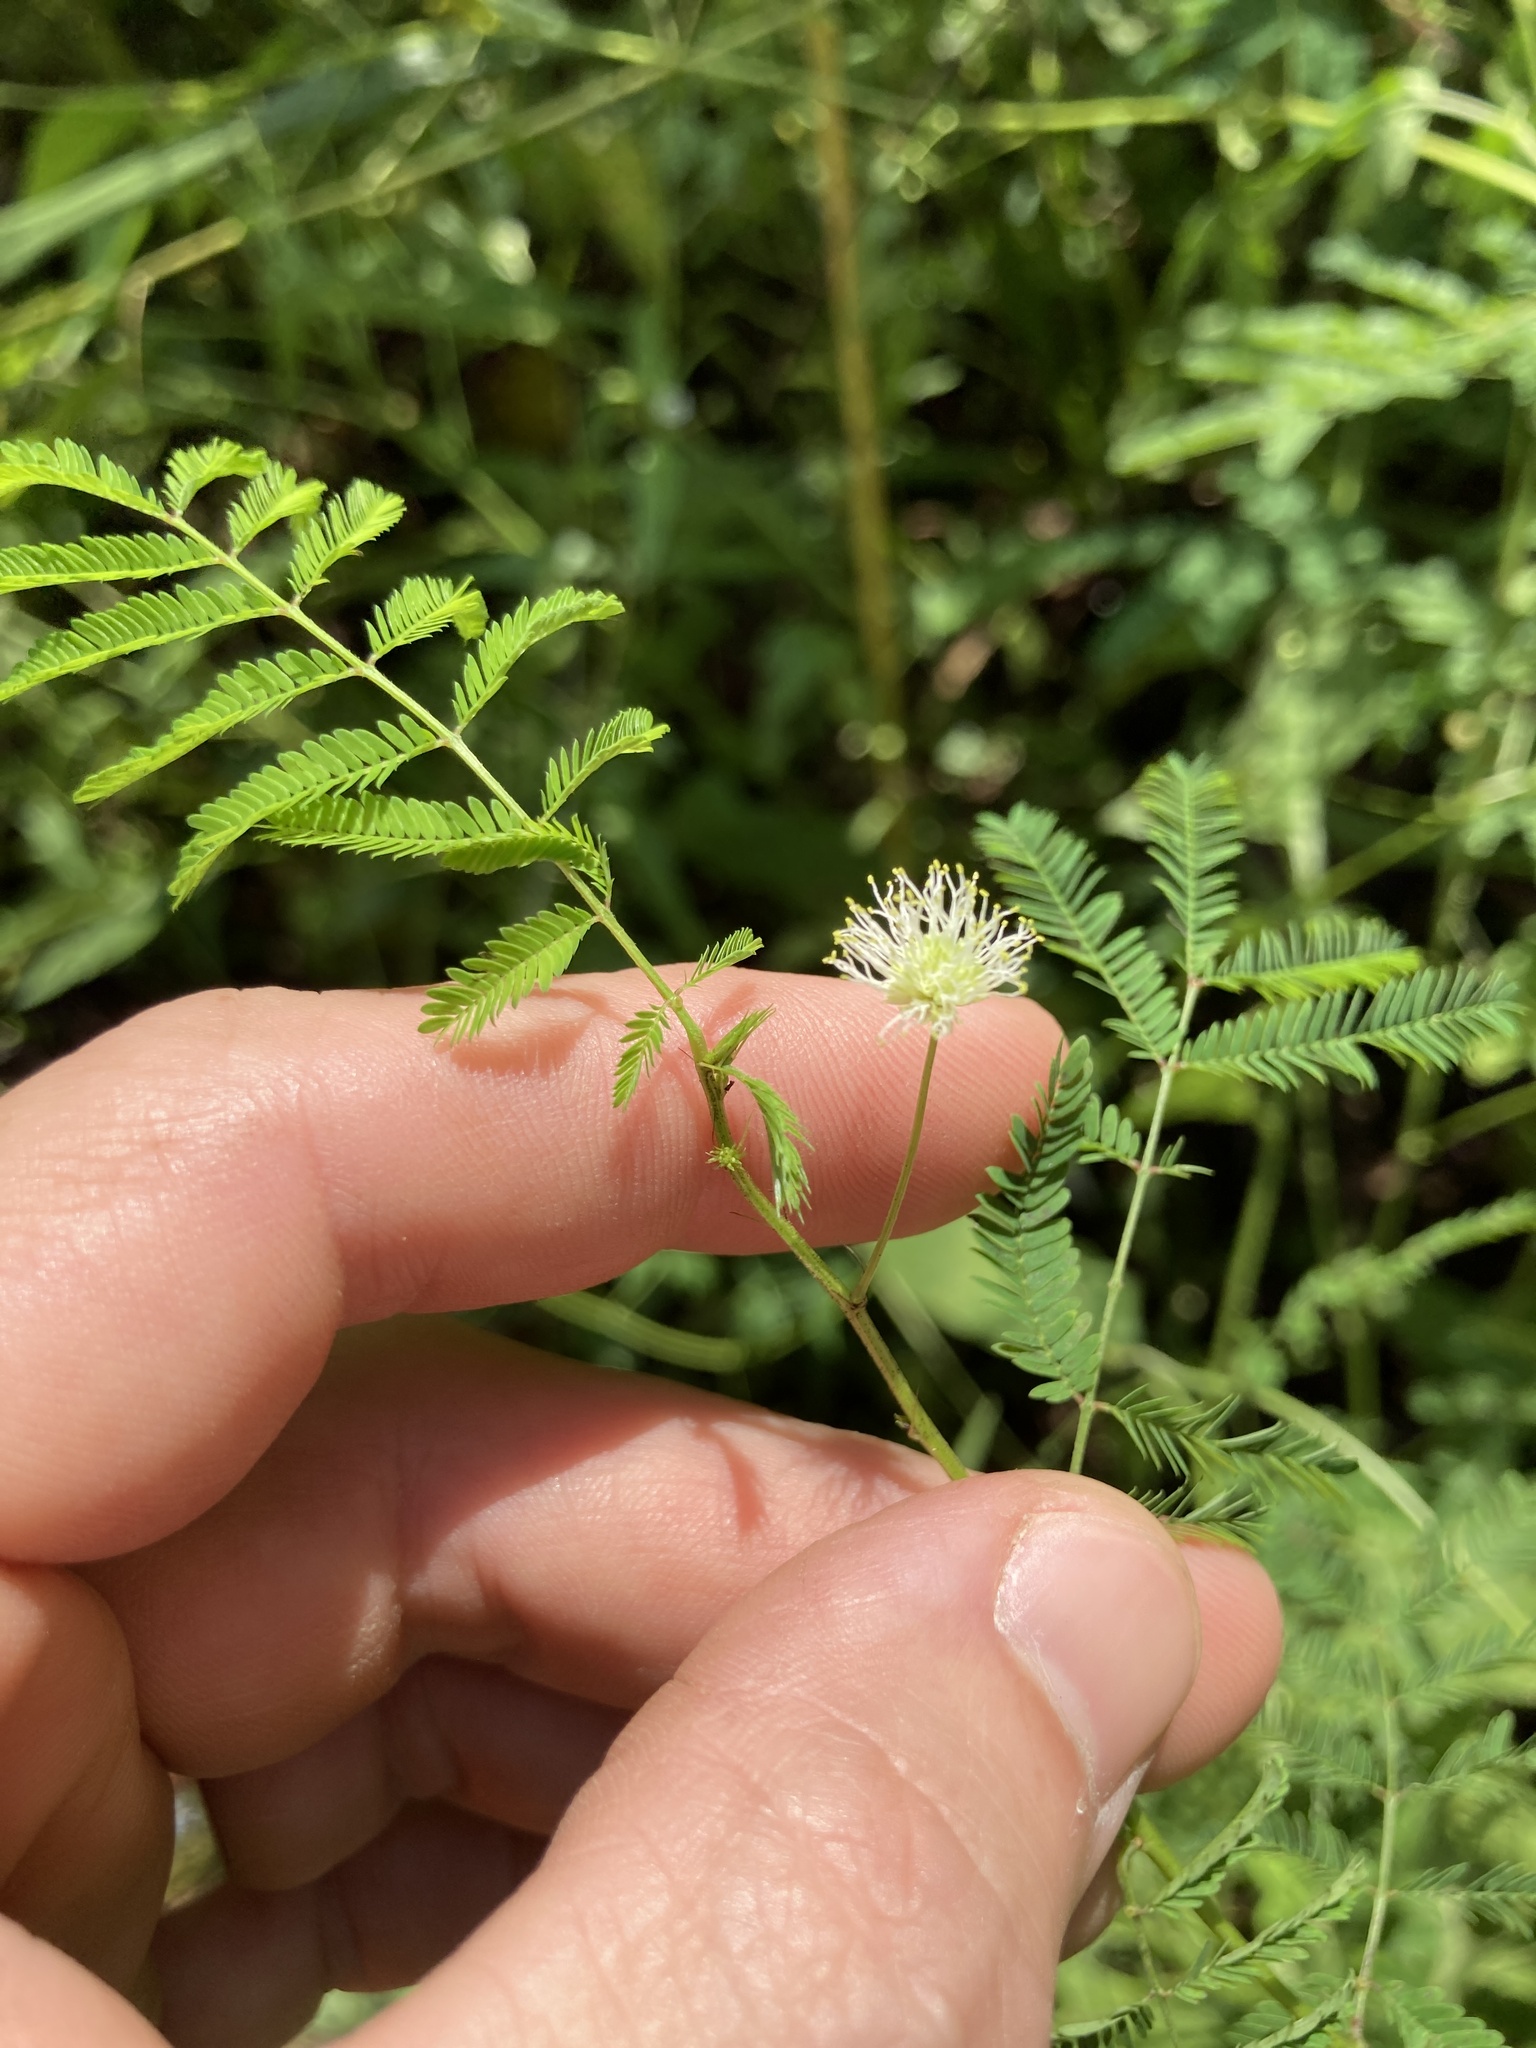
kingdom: Plantae
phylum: Tracheophyta
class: Magnoliopsida
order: Fabales
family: Fabaceae
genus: Desmanthus
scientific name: Desmanthus illinoensis
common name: Illinois bundle-flower
